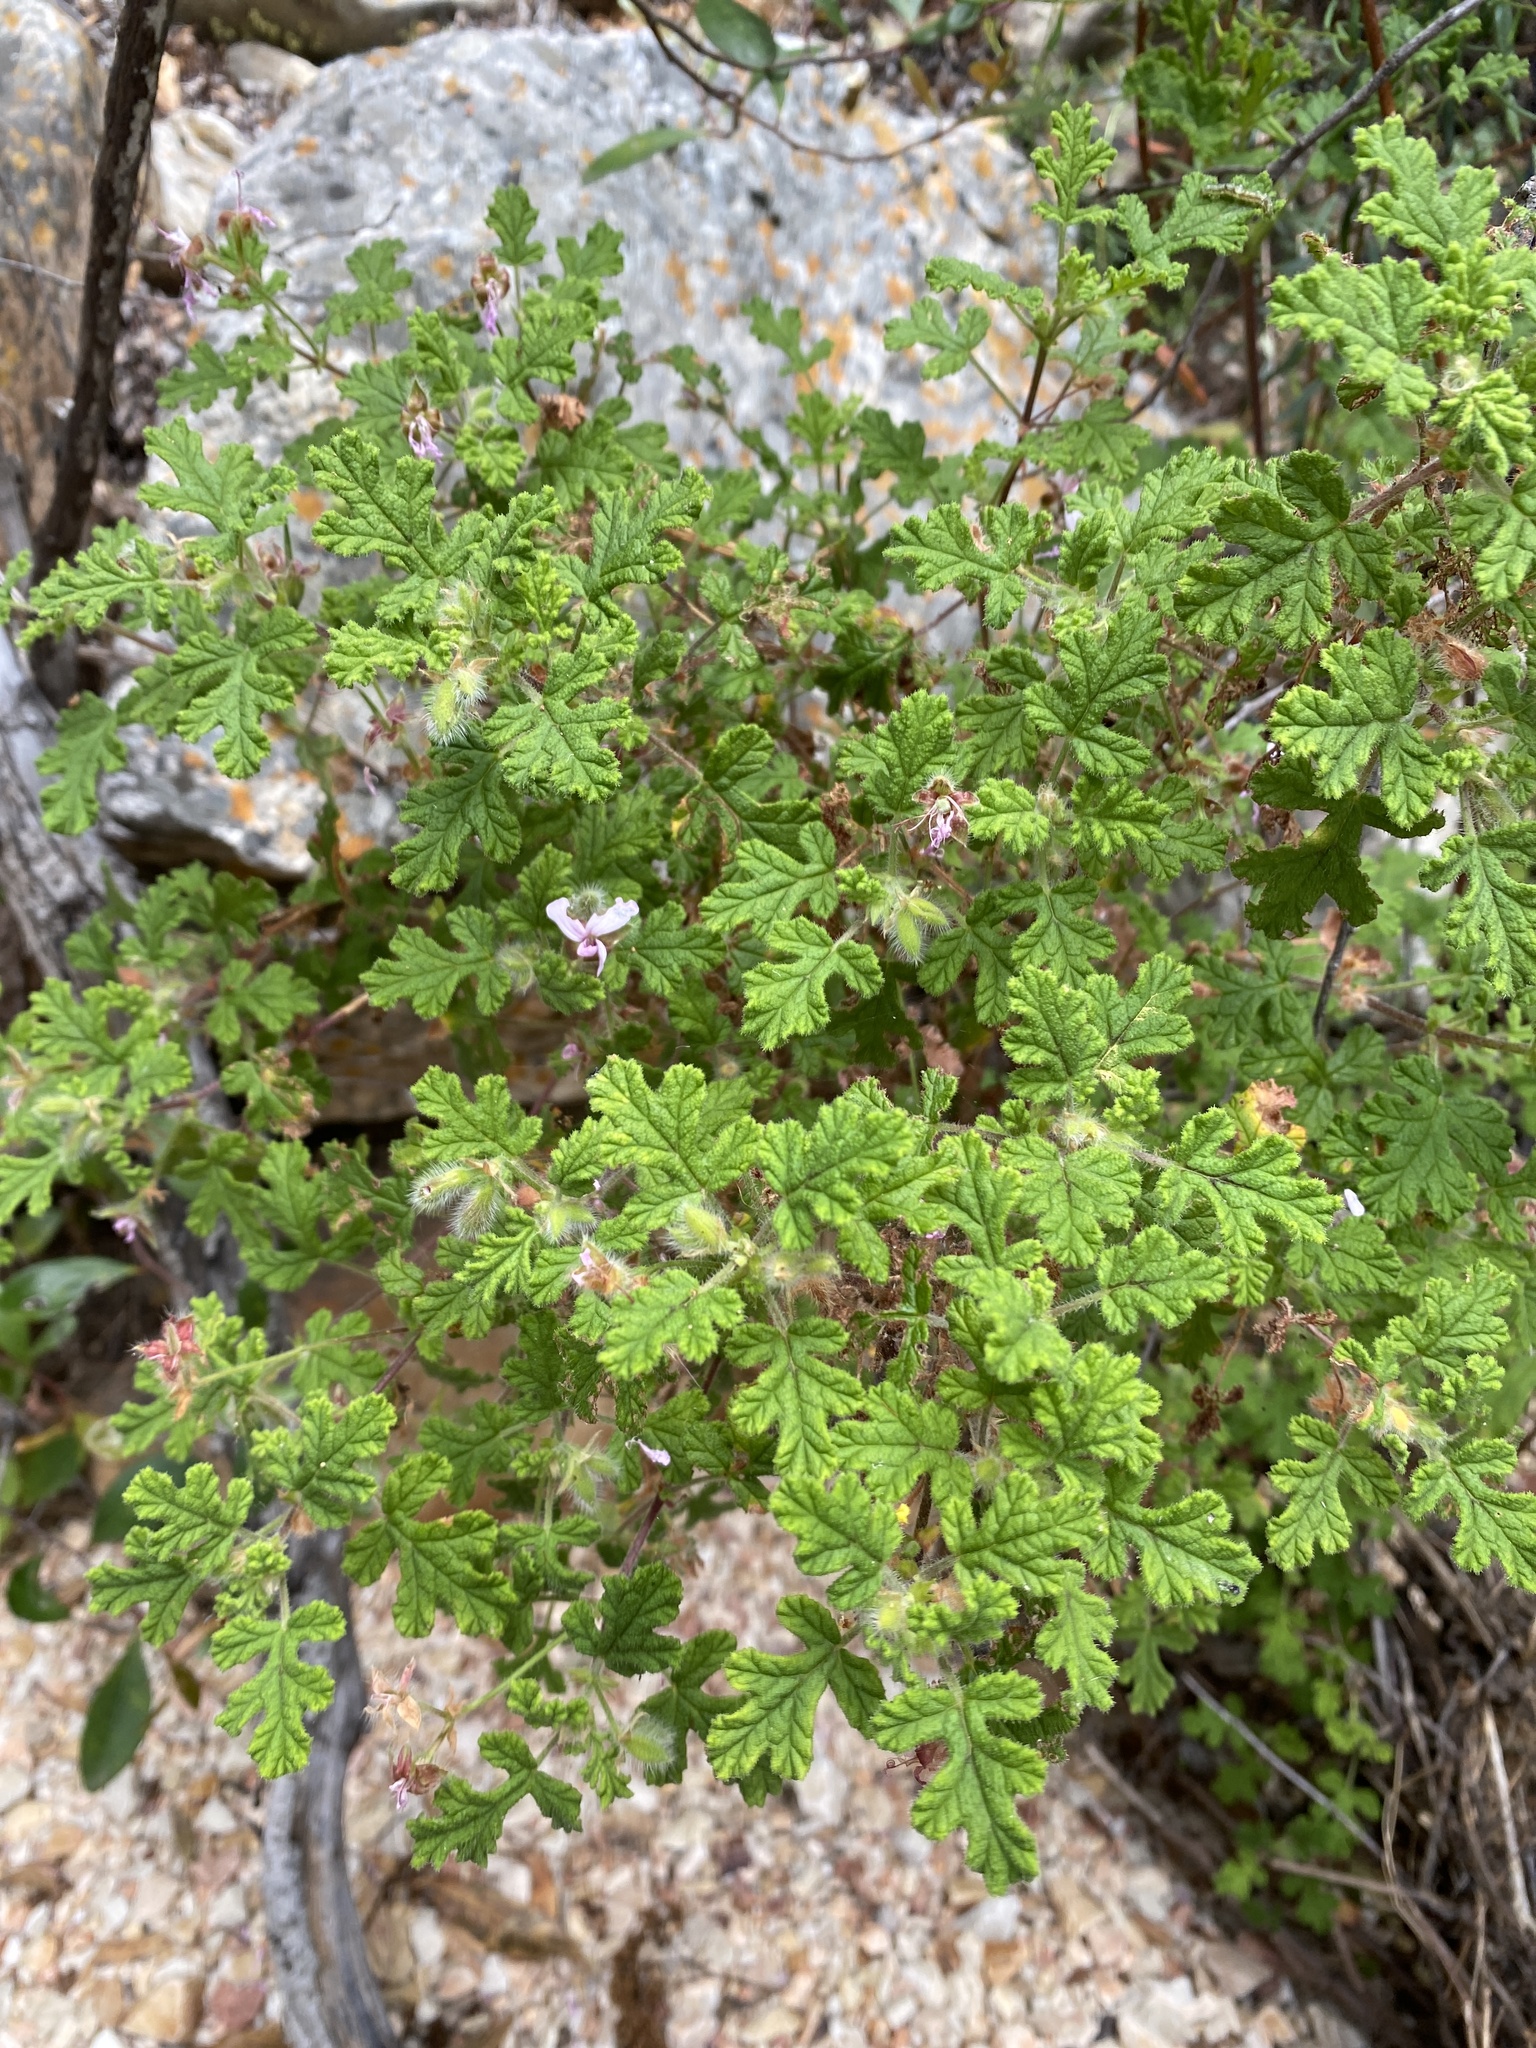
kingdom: Plantae
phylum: Tracheophyta
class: Magnoliopsida
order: Geraniales
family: Geraniaceae
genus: Pelargonium
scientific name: Pelargonium panduriforme
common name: Oakleaf garden geranium
